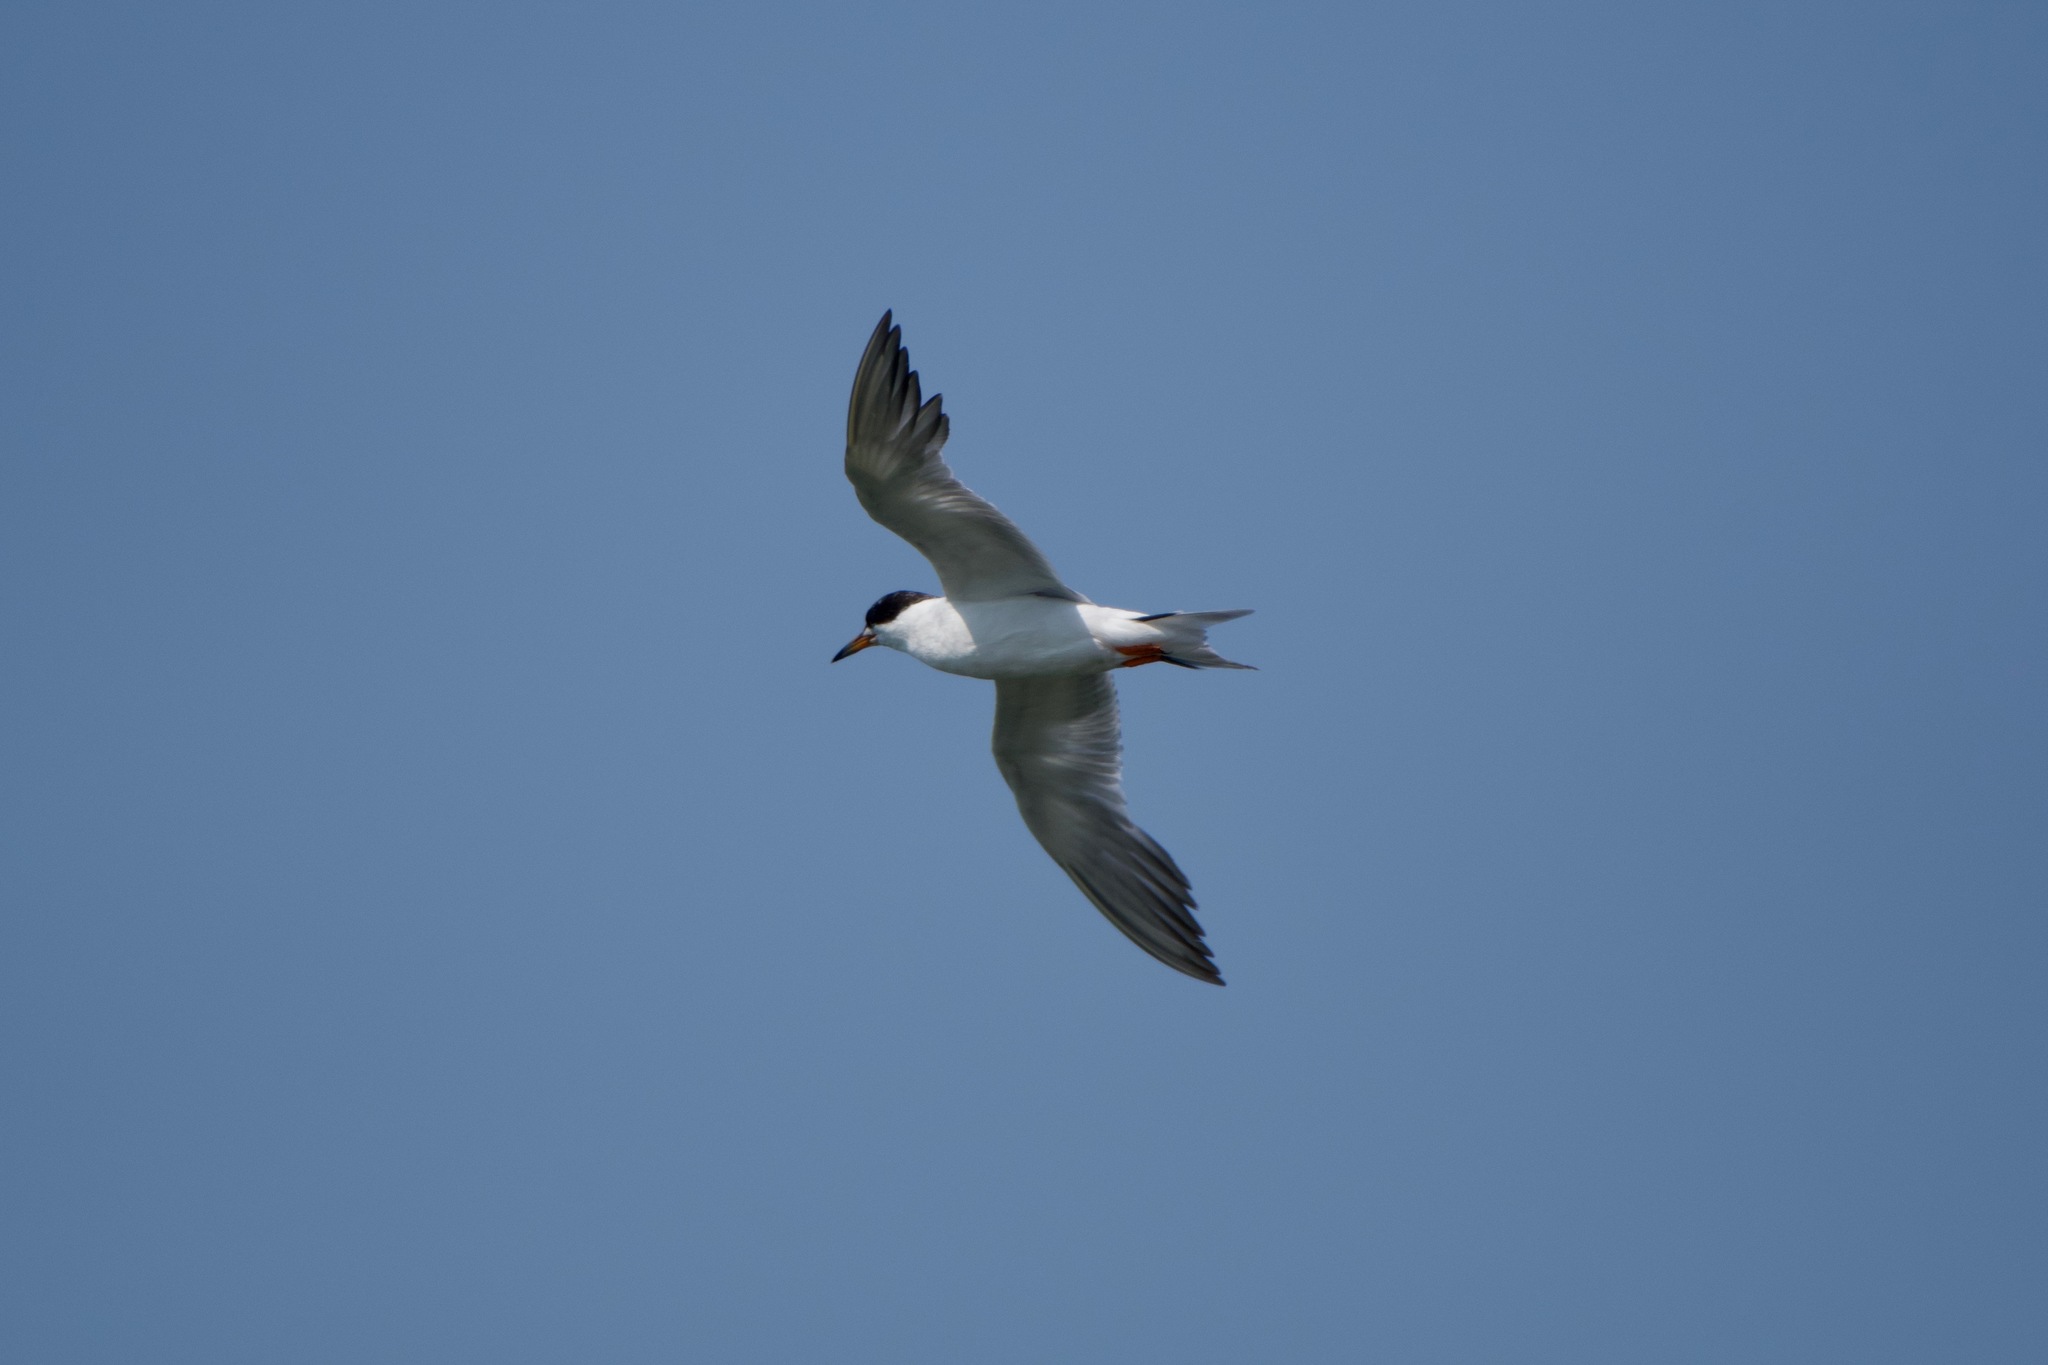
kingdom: Animalia
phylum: Chordata
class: Aves
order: Charadriiformes
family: Laridae
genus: Sterna
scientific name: Sterna forsteri
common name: Forster's tern
